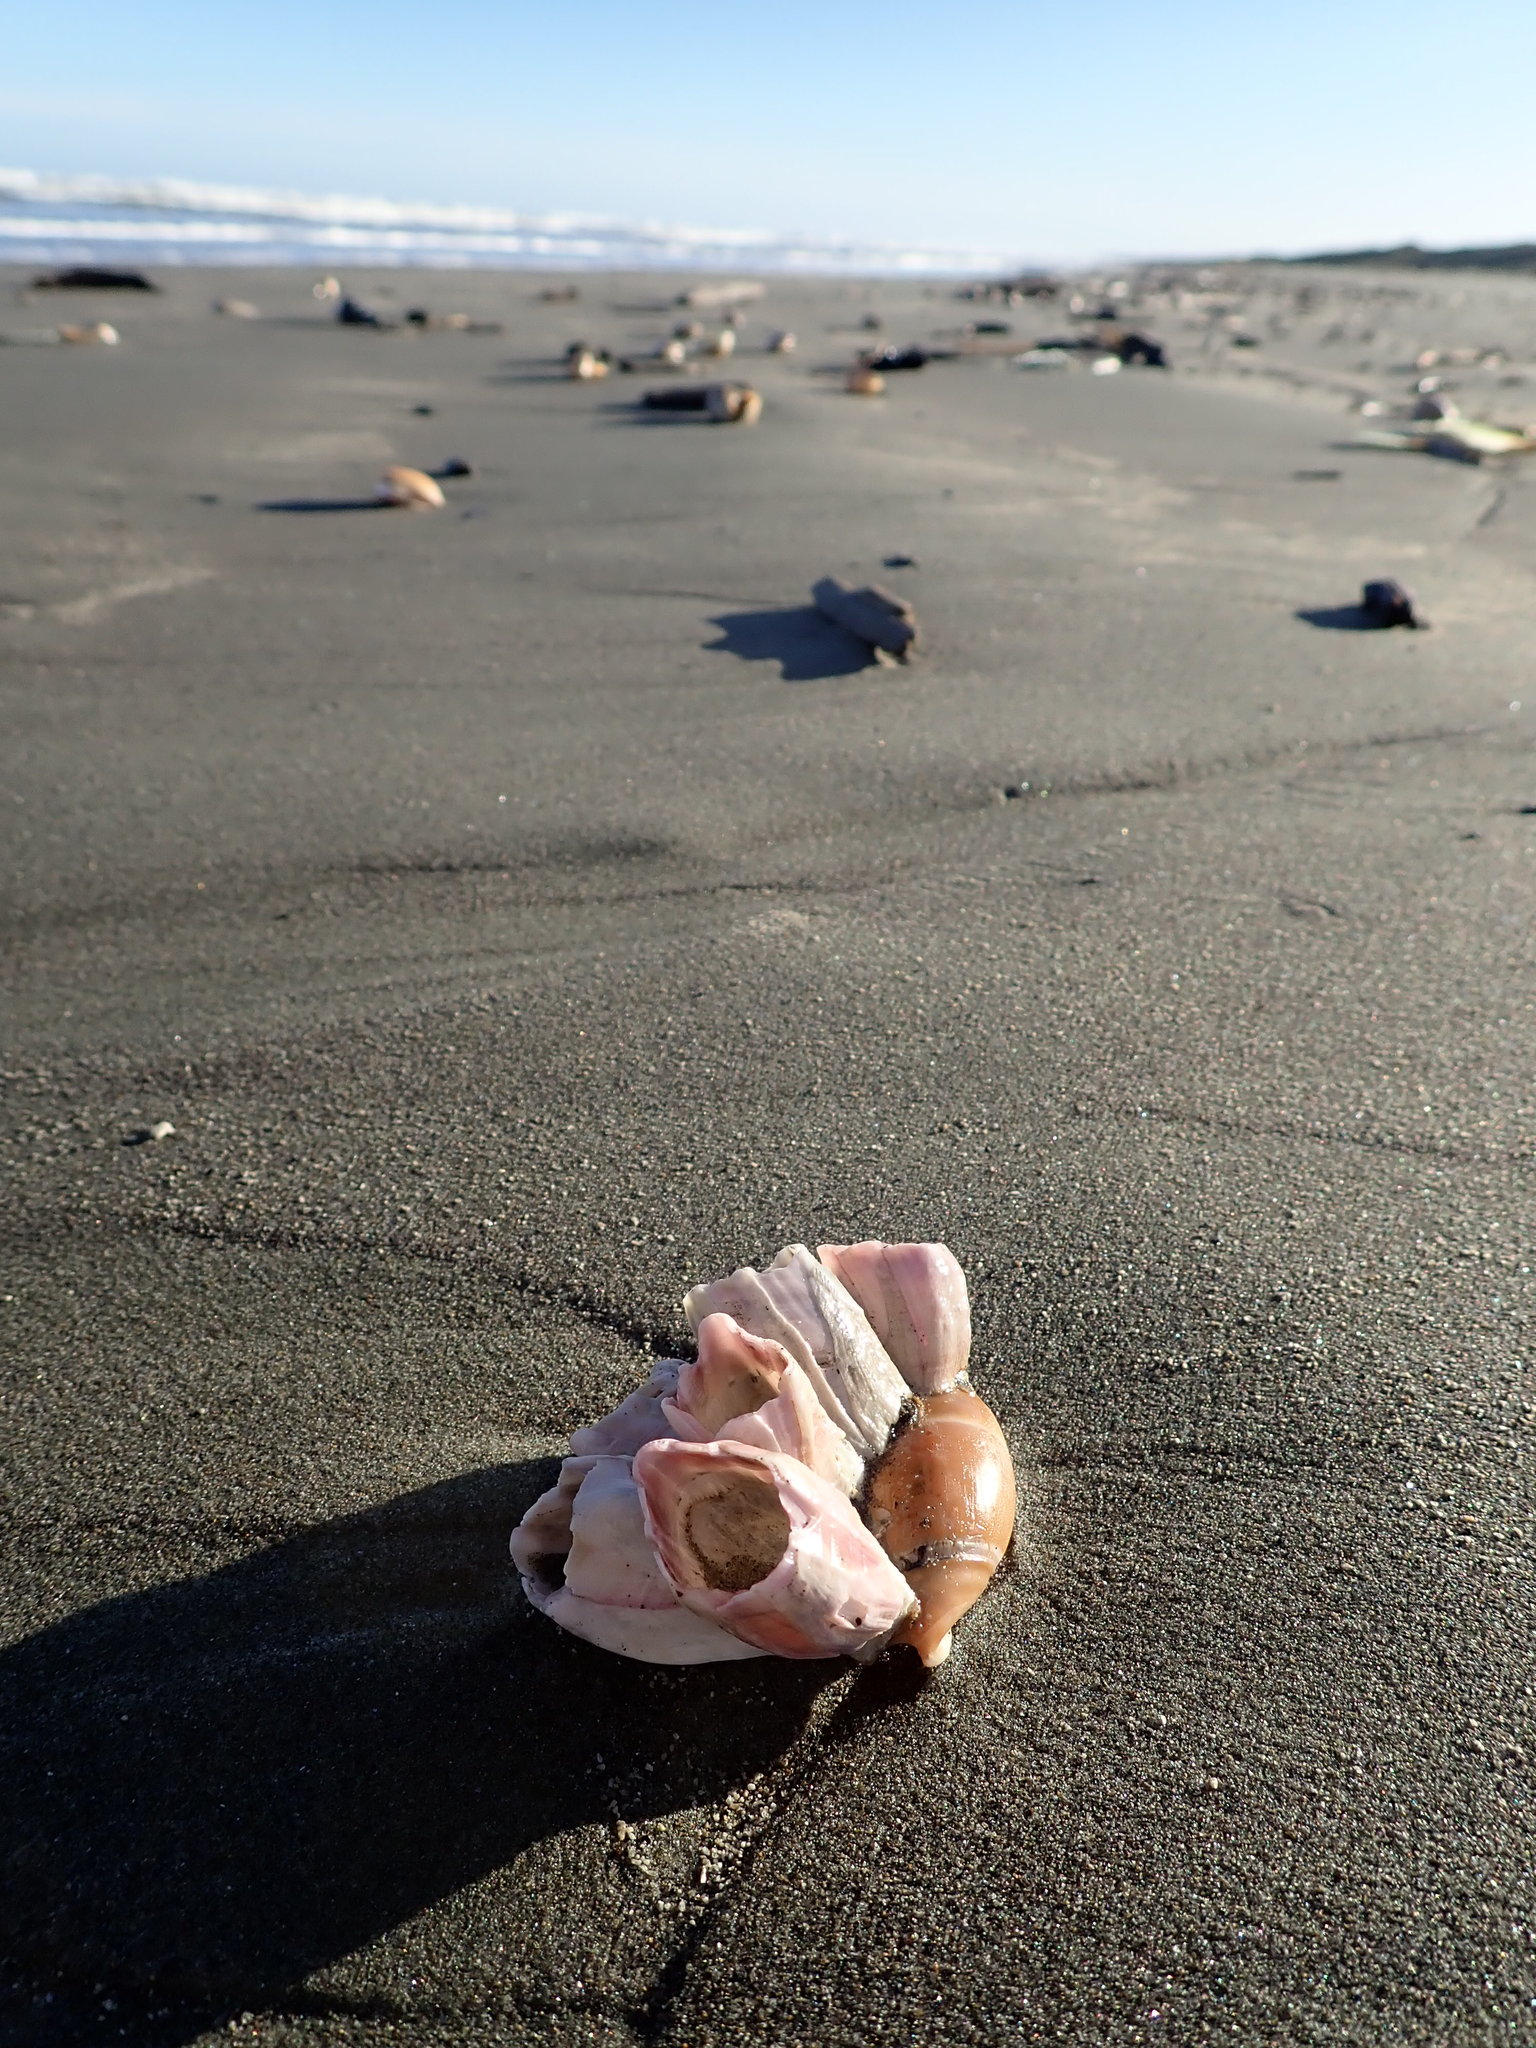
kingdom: Animalia
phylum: Mollusca
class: Gastropoda
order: Neogastropoda
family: Ancillariidae
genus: Amalda
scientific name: Amalda mucronata
